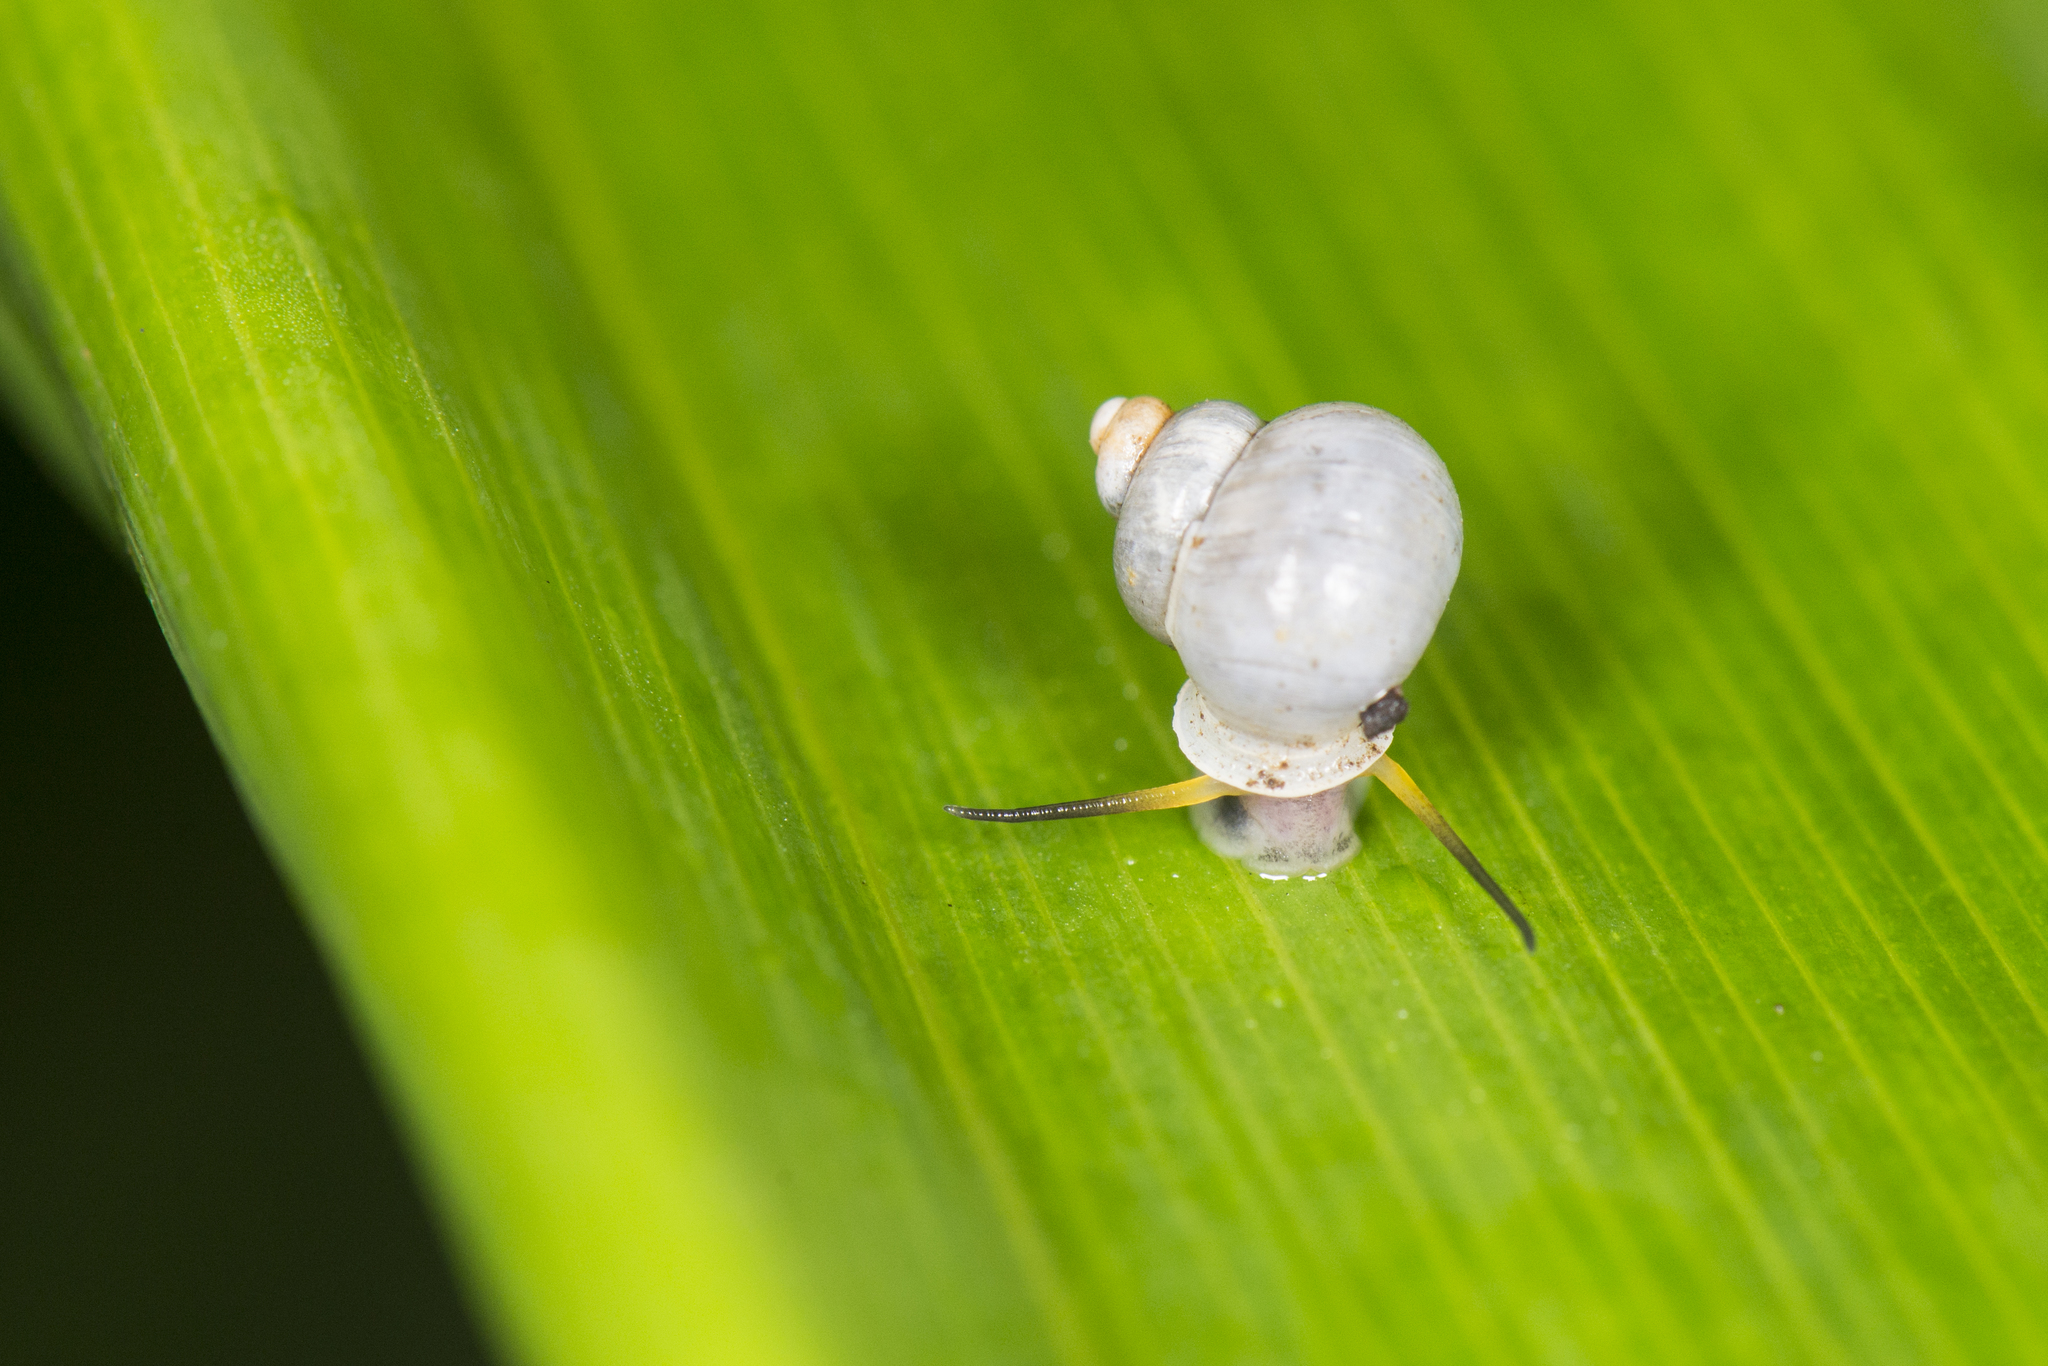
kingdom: Animalia
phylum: Mollusca
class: Gastropoda
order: Architaenioglossa
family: Alycaeidae
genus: Dioryx
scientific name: Dioryx swinhoei
